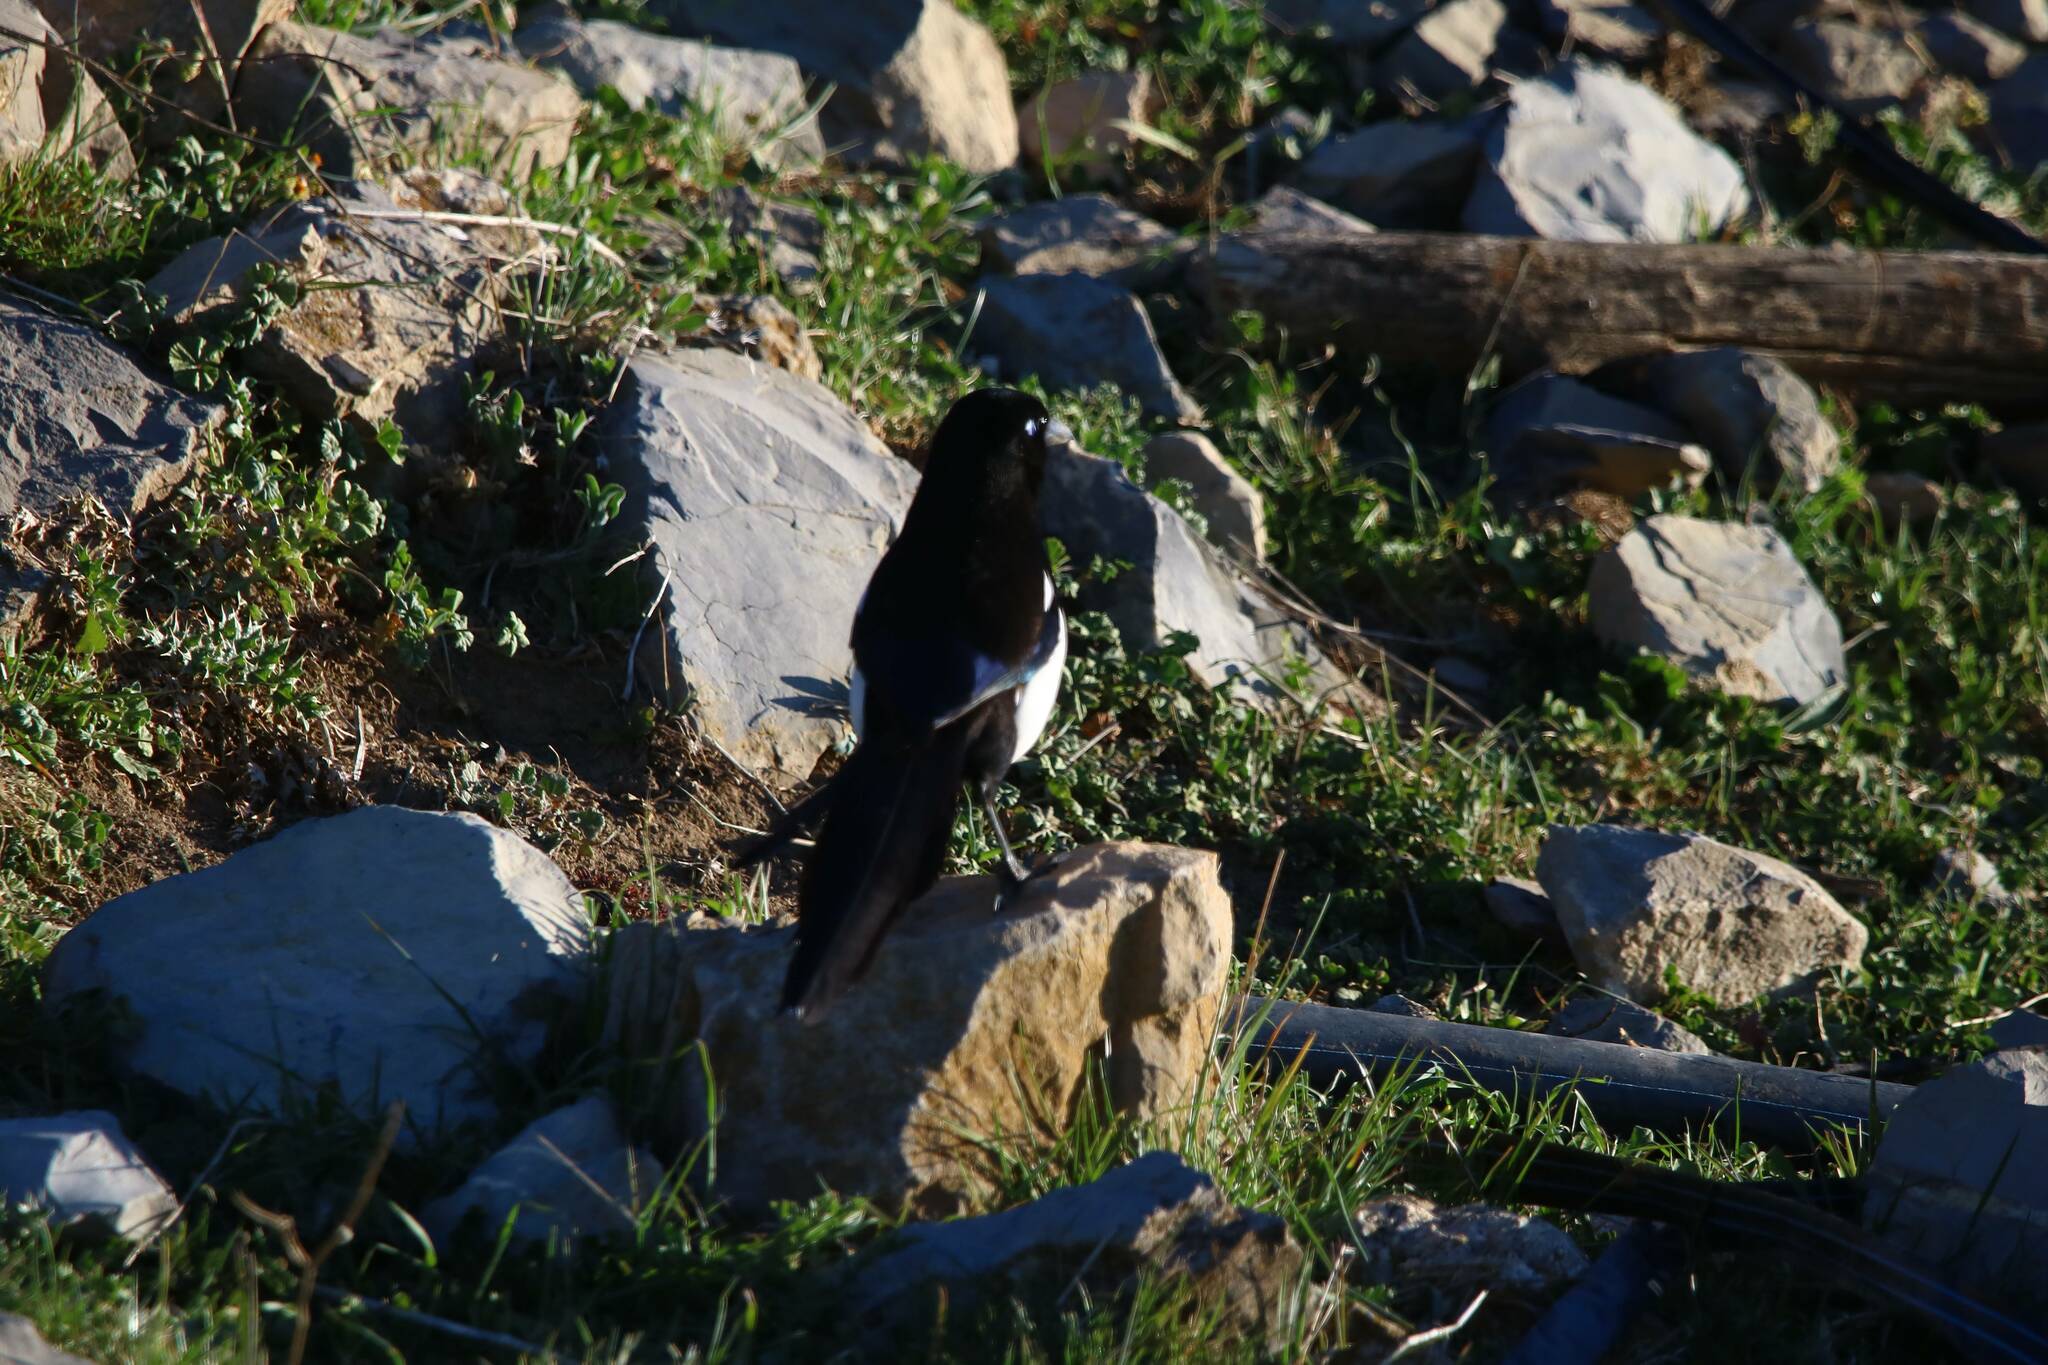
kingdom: Animalia
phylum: Chordata
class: Aves
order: Passeriformes
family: Corvidae
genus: Pica
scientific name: Pica mauritanica
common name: Maghreb magpie
